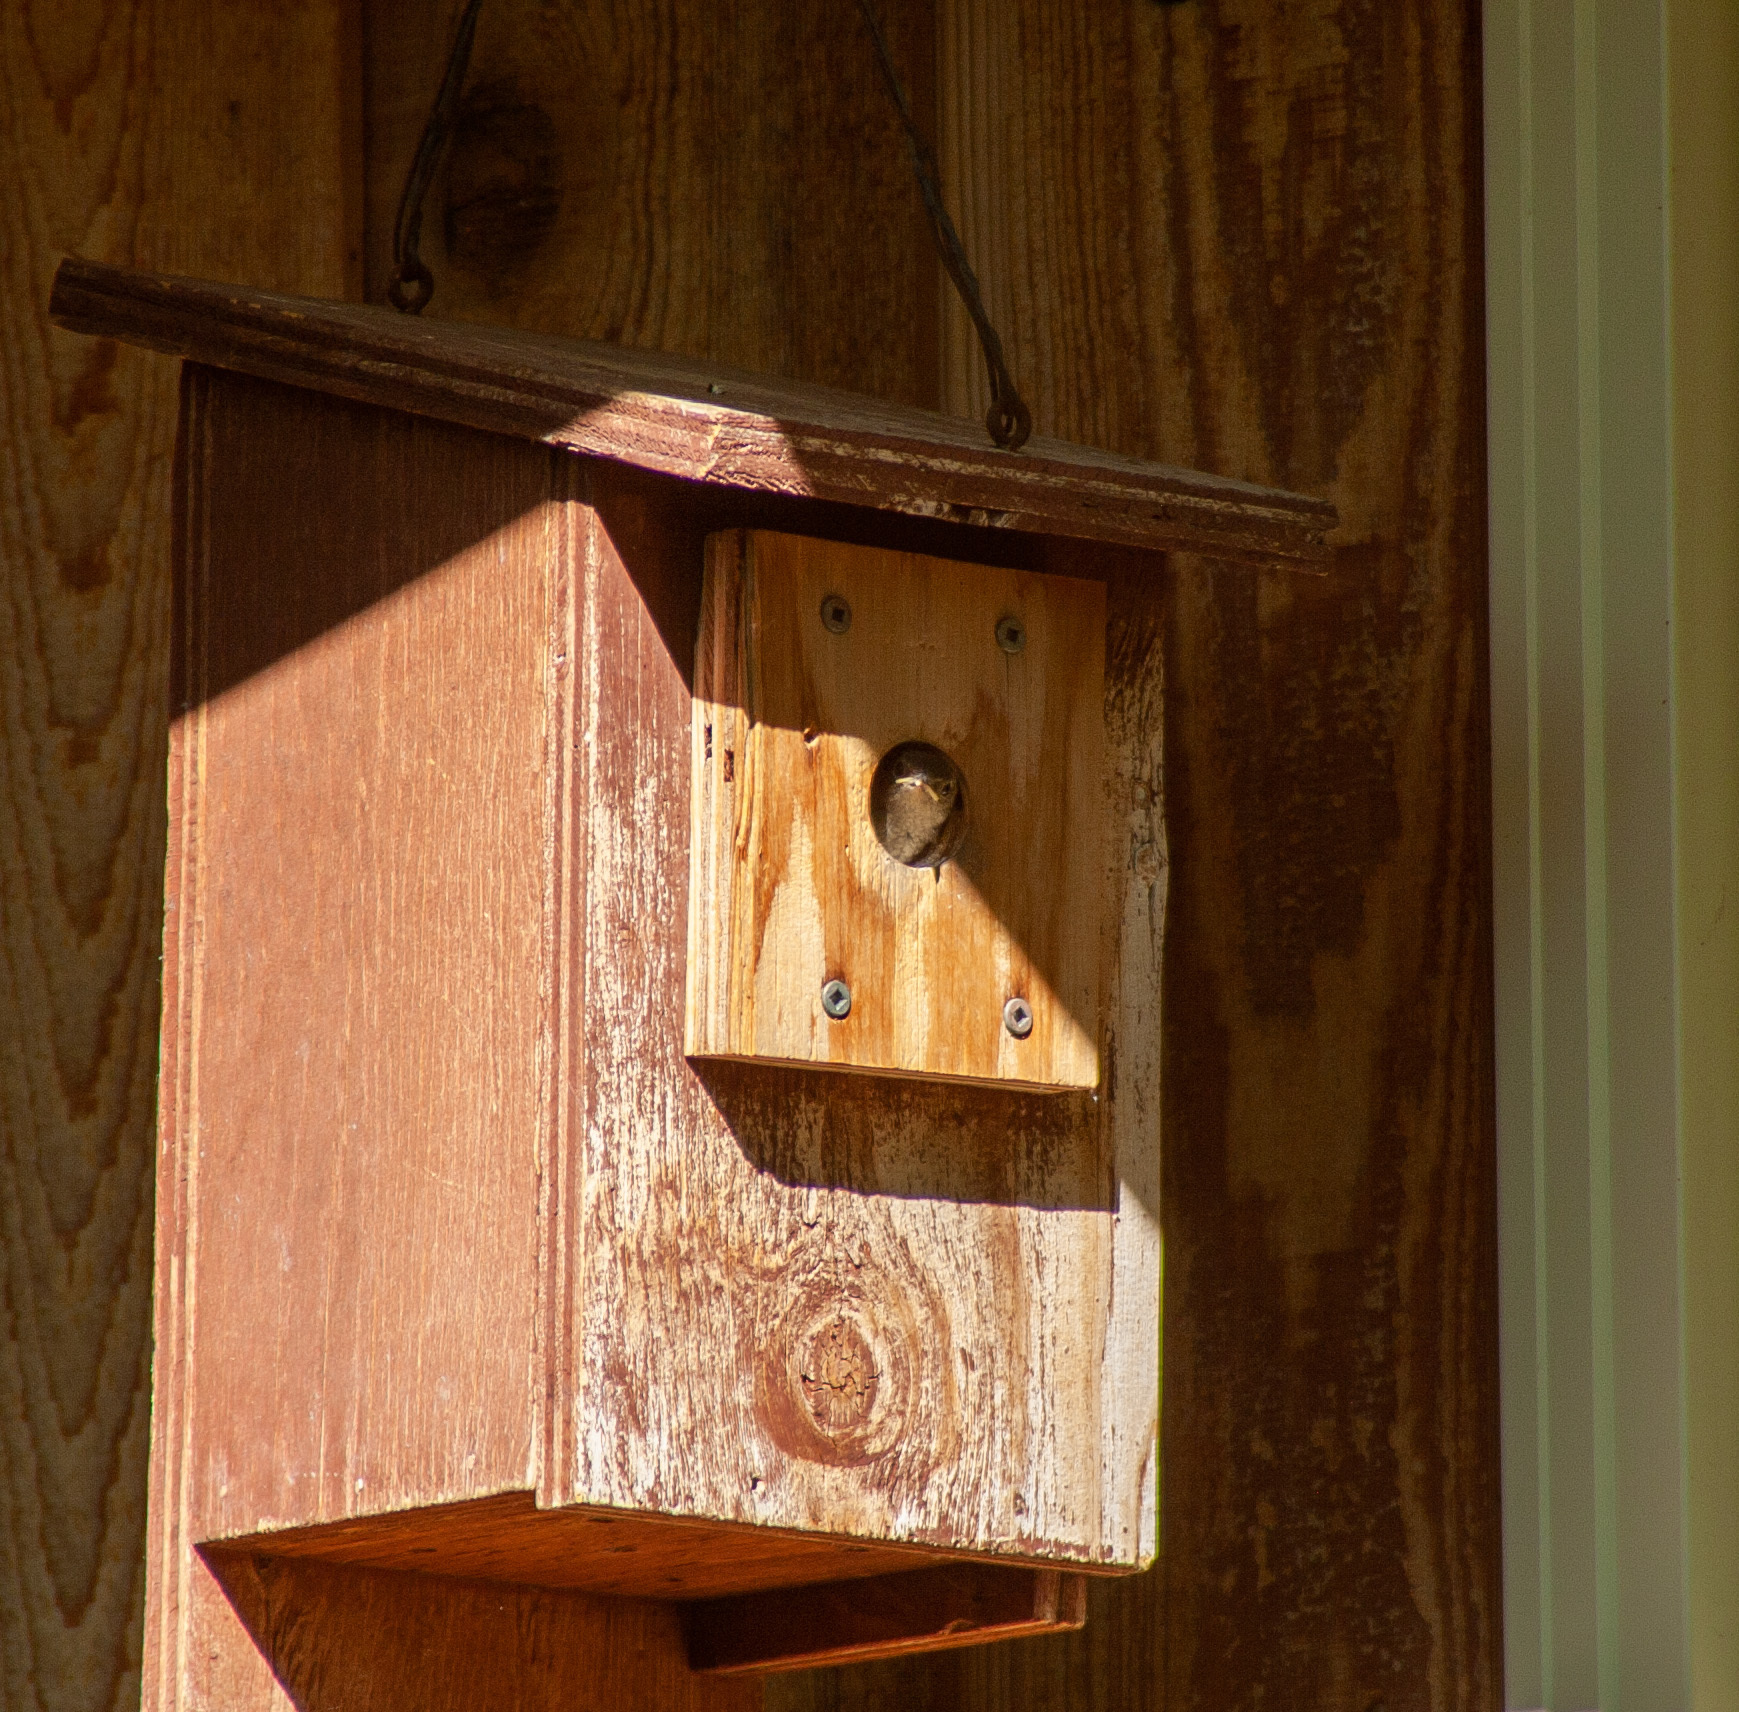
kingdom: Animalia
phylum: Chordata
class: Aves
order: Passeriformes
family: Troglodytidae
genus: Troglodytes
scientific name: Troglodytes aedon
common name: House wren
